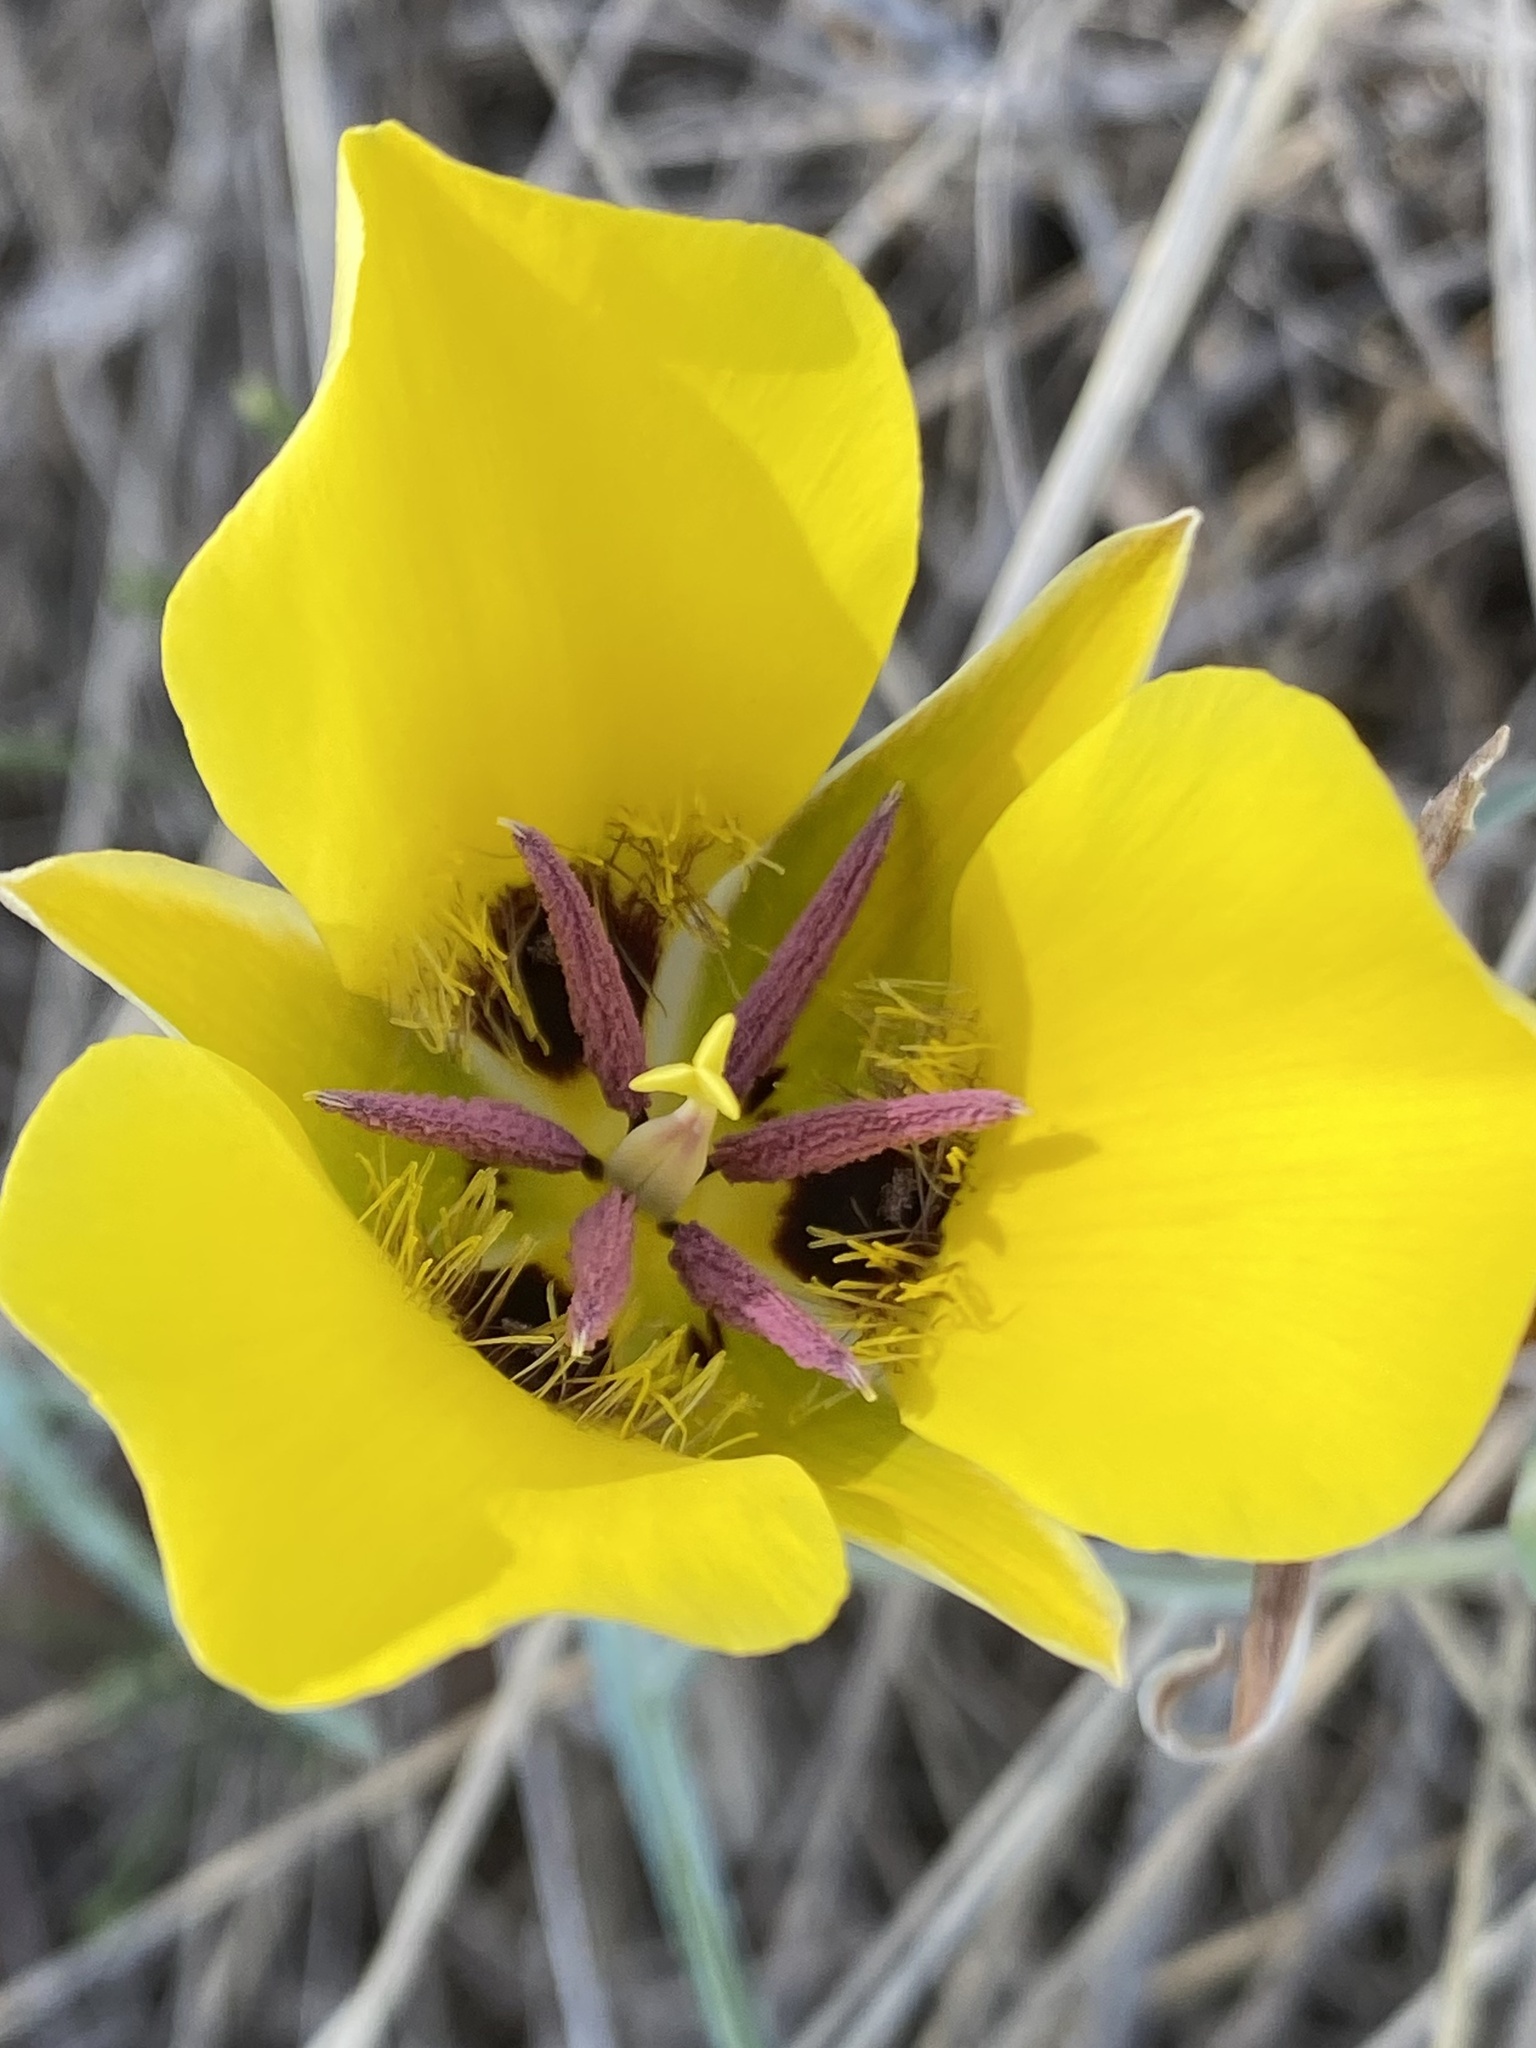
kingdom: Plantae
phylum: Tracheophyta
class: Liliopsida
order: Liliales
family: Liliaceae
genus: Calochortus
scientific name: Calochortus kennedyi
